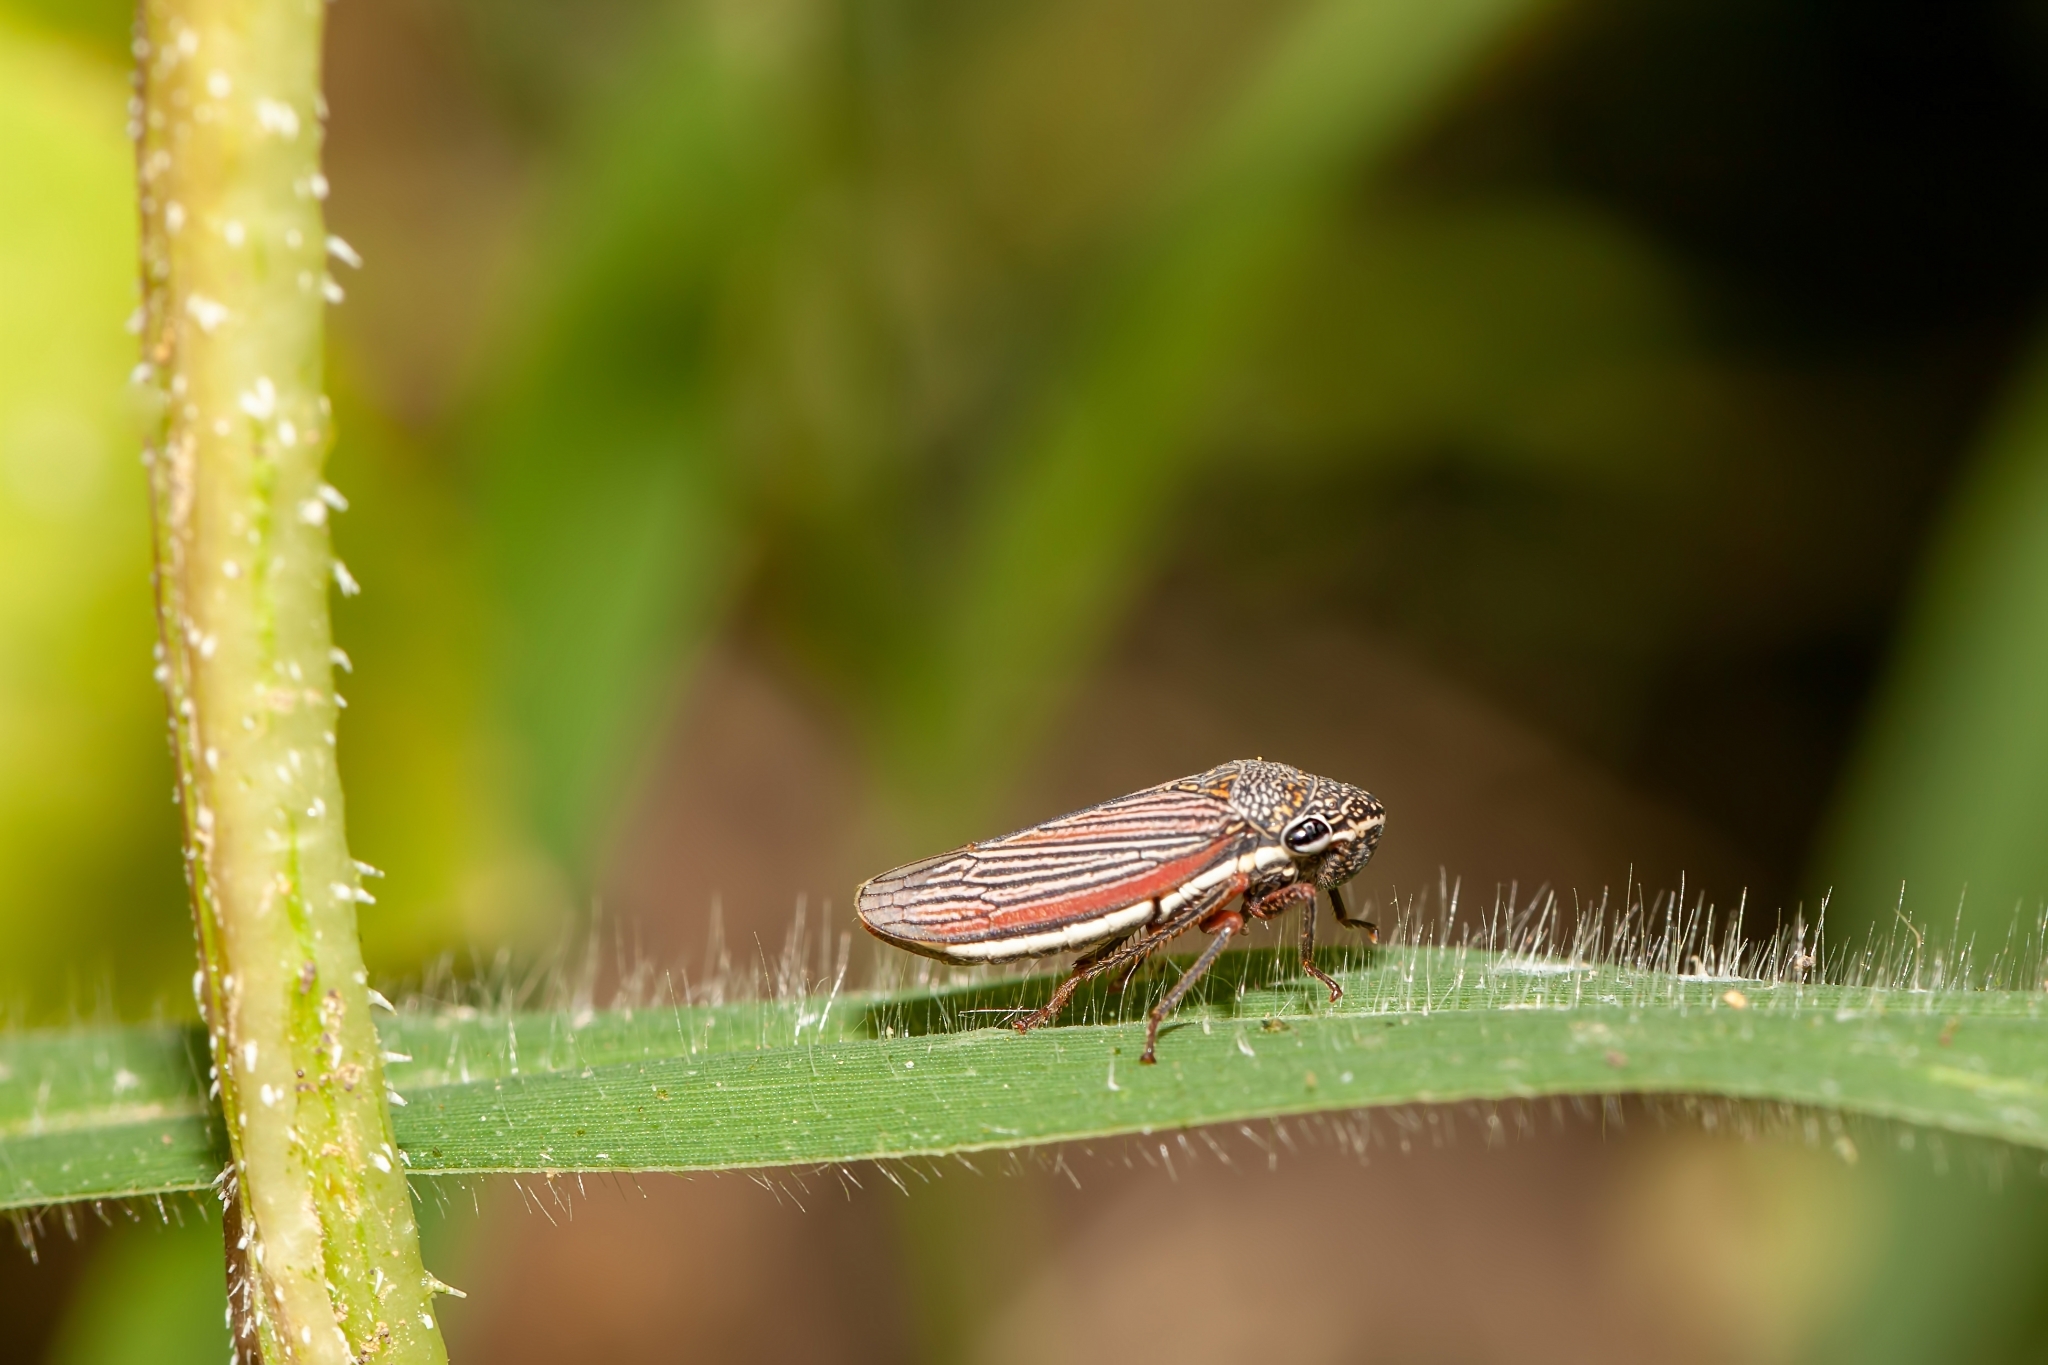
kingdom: Animalia
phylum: Arthropoda
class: Insecta
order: Hemiptera
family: Cicadellidae
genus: Cuerna
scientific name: Cuerna costalis
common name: Lateral-lined sharpshooter
